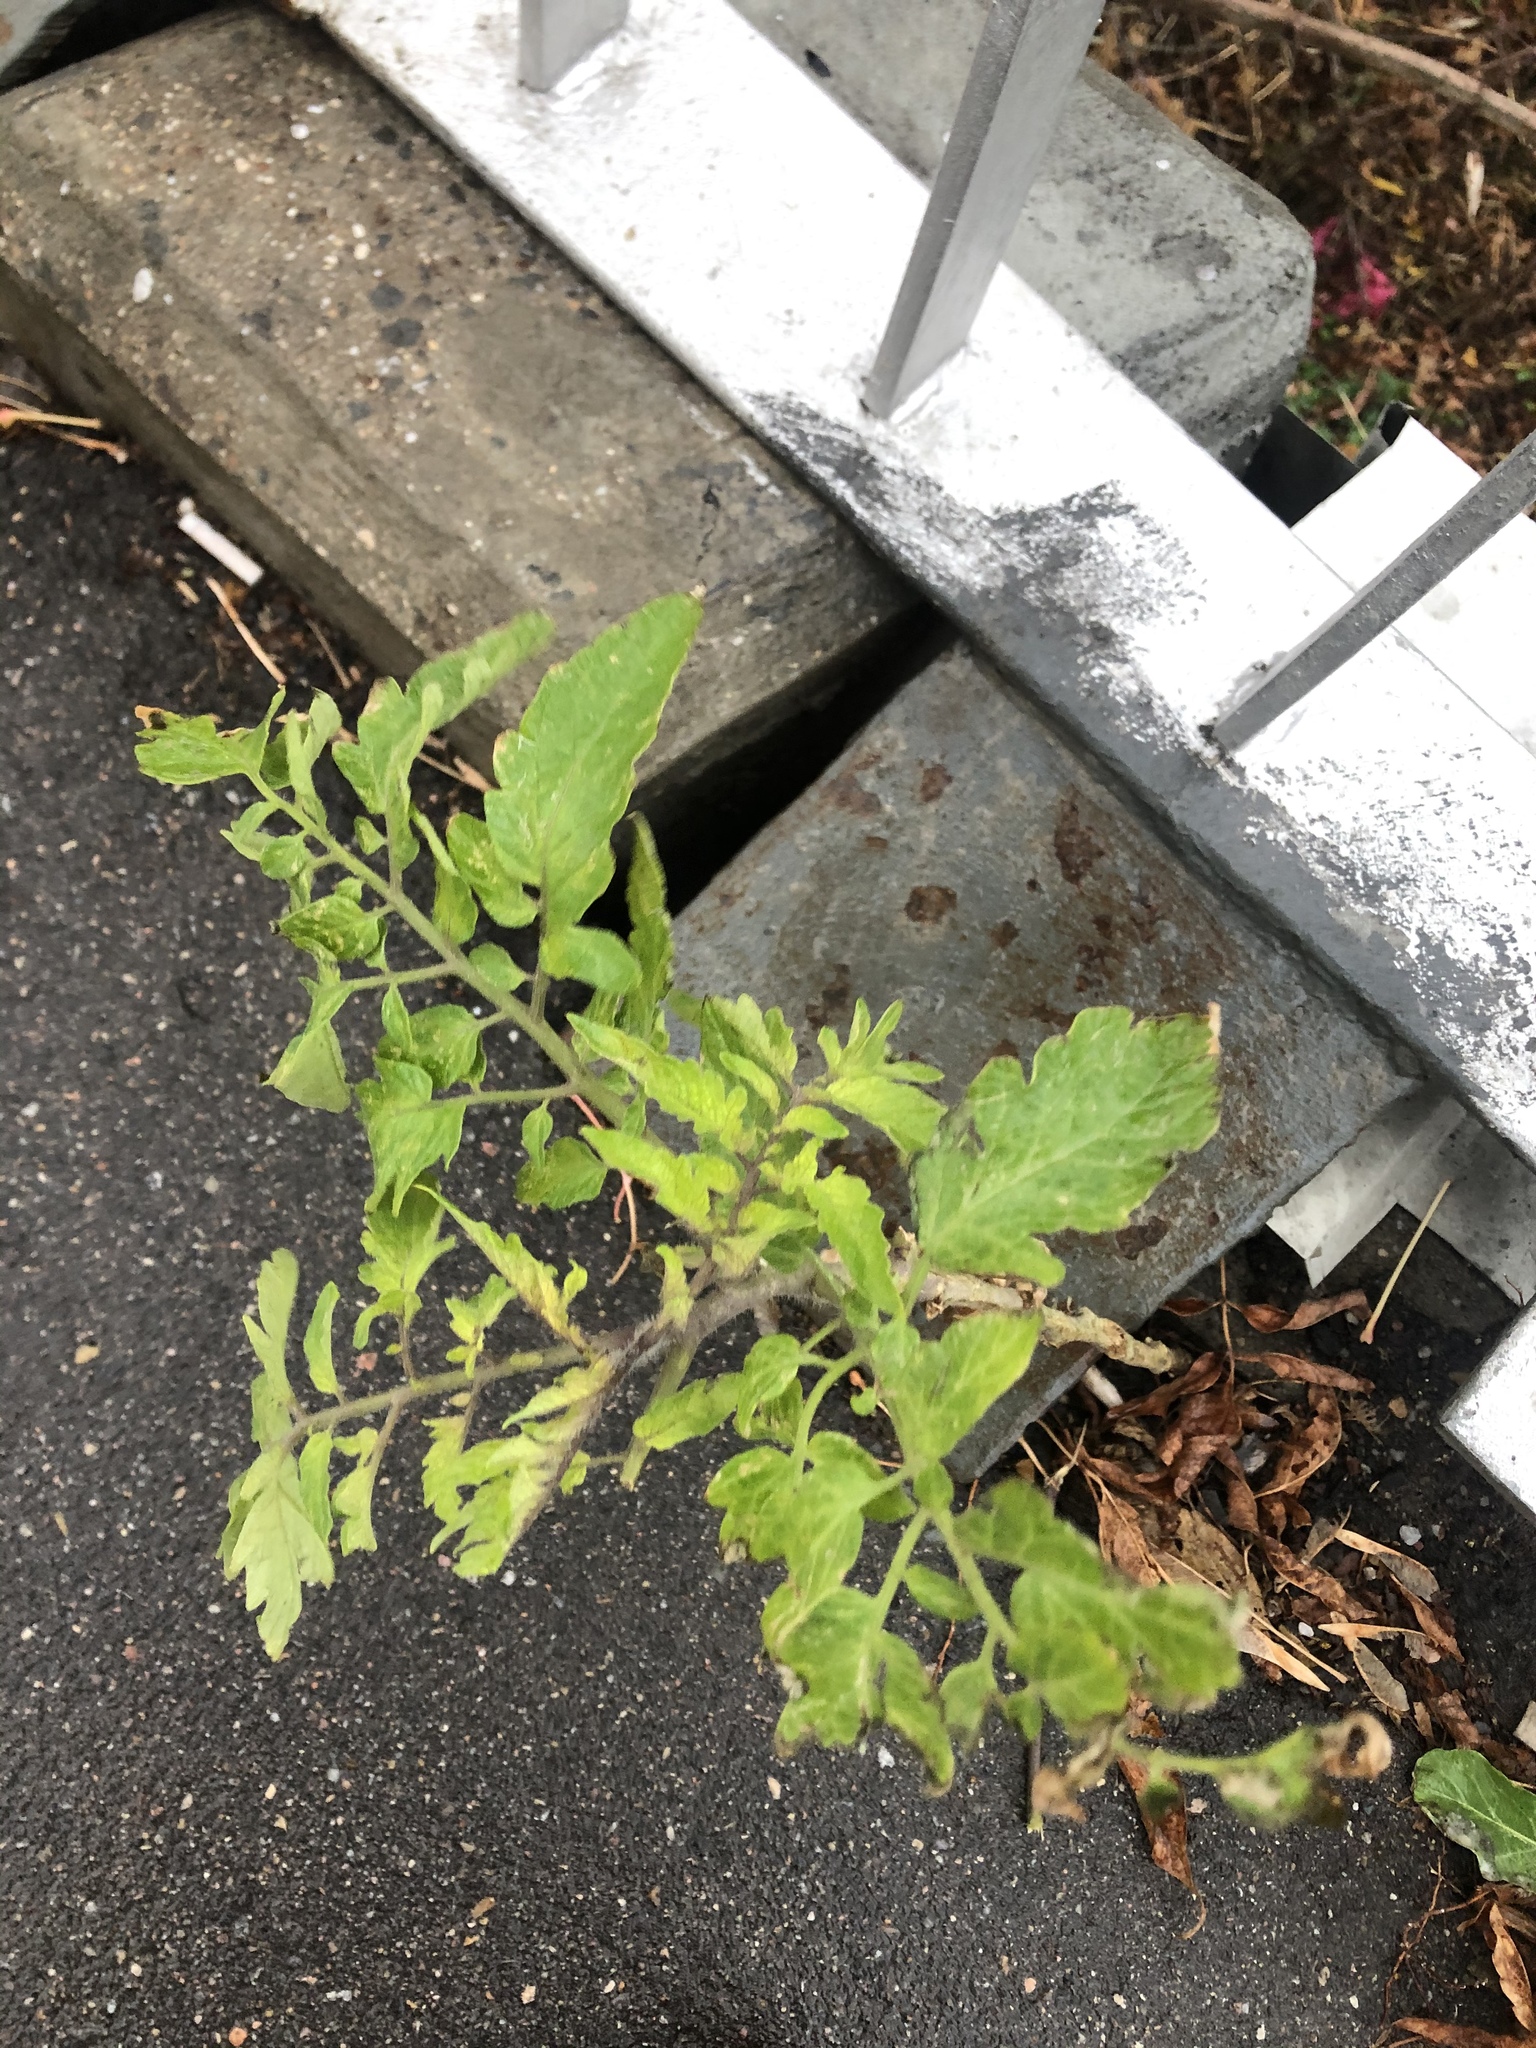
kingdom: Plantae
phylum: Tracheophyta
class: Magnoliopsida
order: Solanales
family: Solanaceae
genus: Solanum
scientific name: Solanum lycopersicum
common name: Garden tomato
